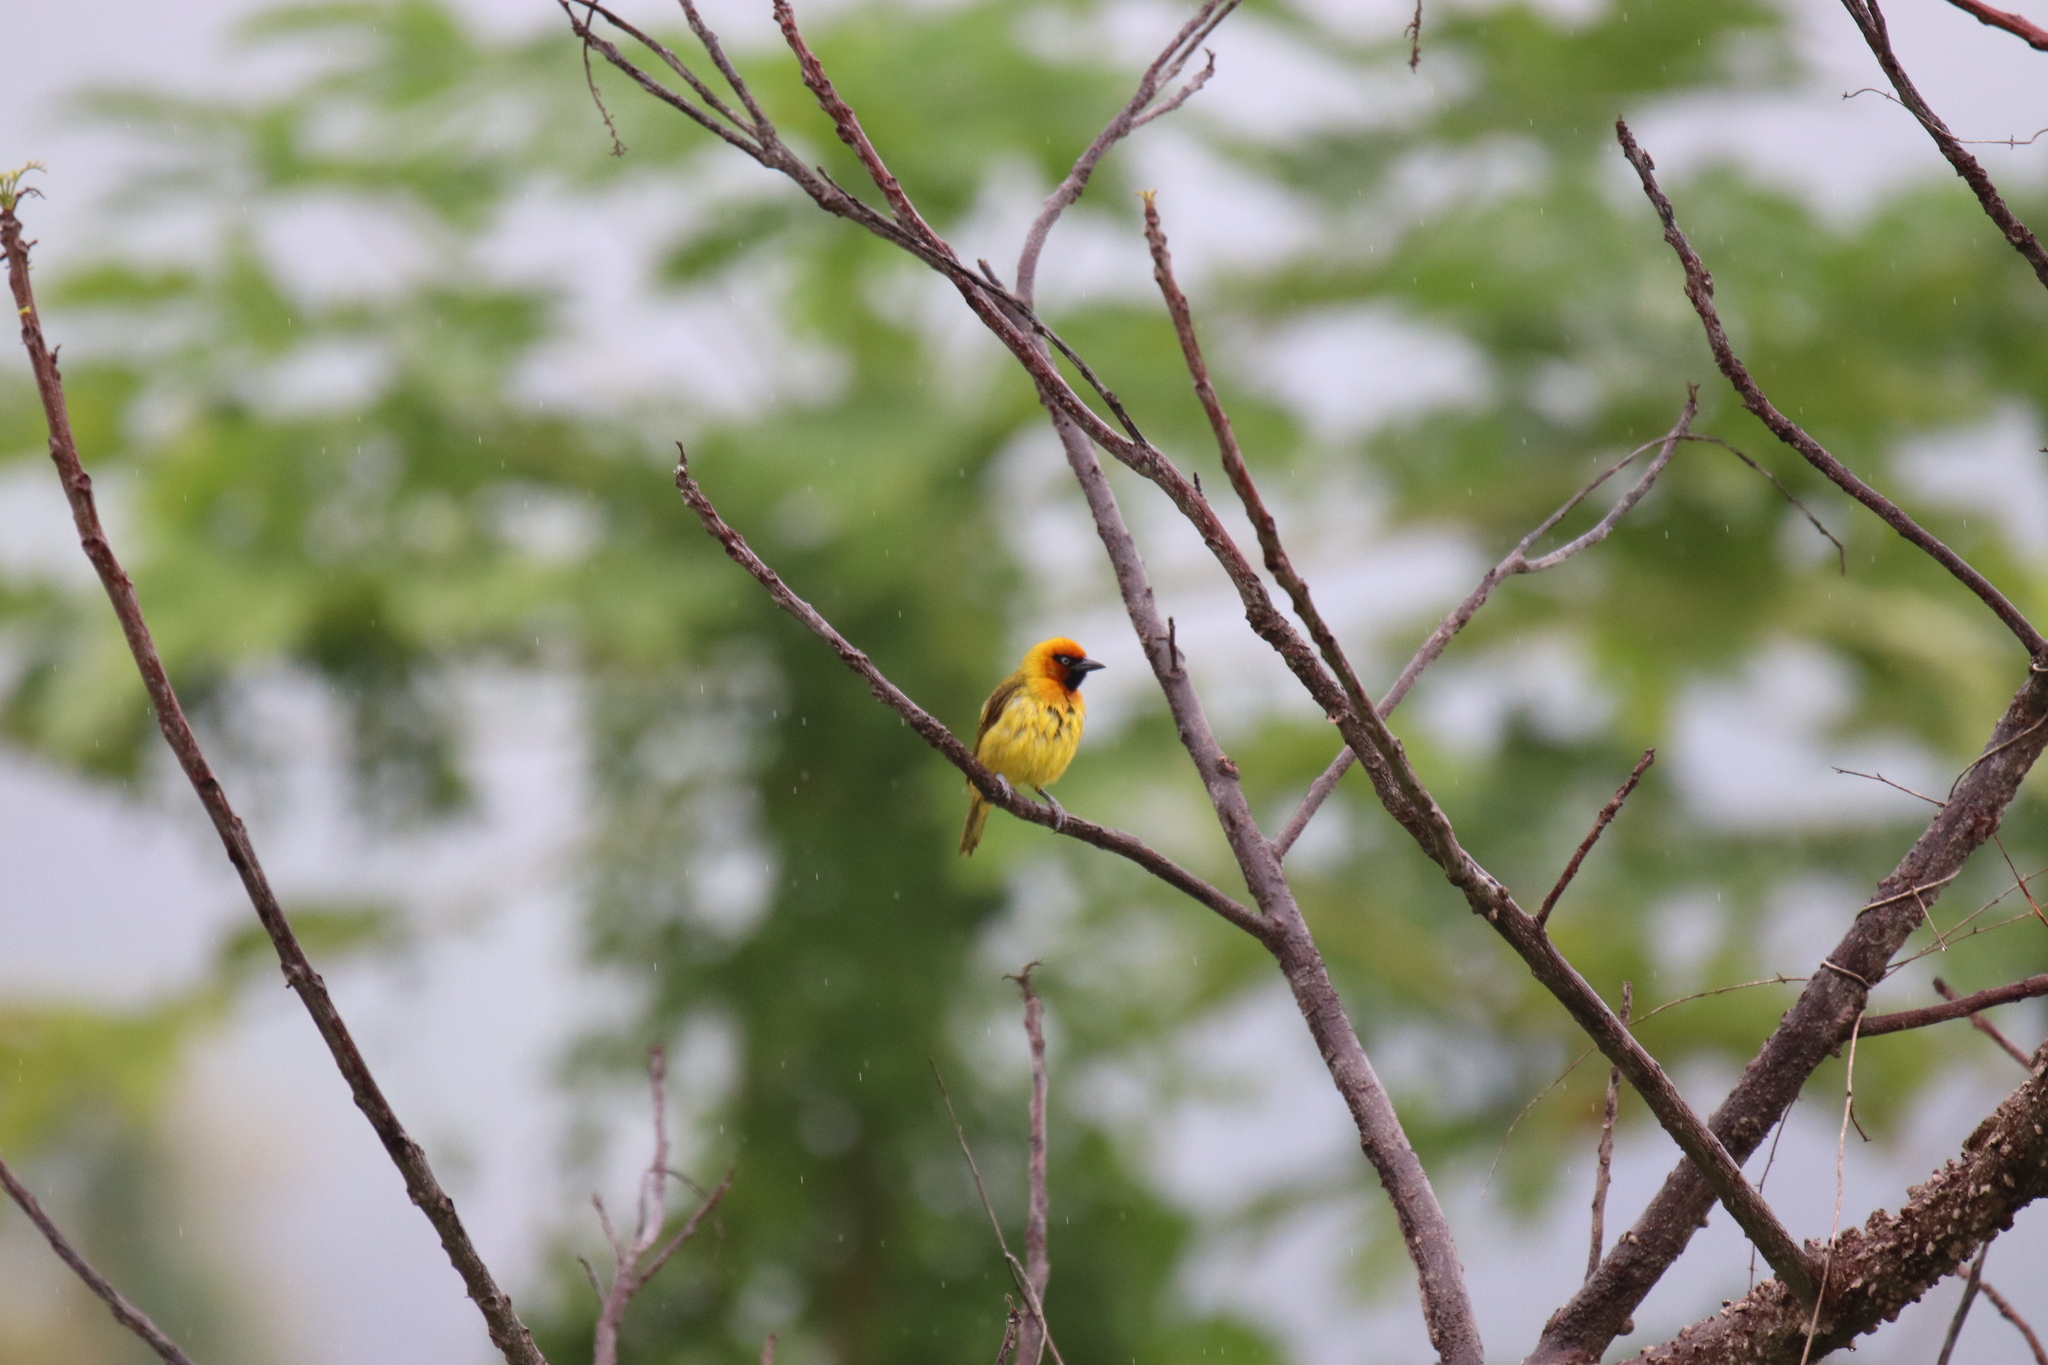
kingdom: Animalia
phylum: Chordata
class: Aves
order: Passeriformes
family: Ploceidae
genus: Ploceus
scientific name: Ploceus brachypterus
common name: Olive-naped weaver
